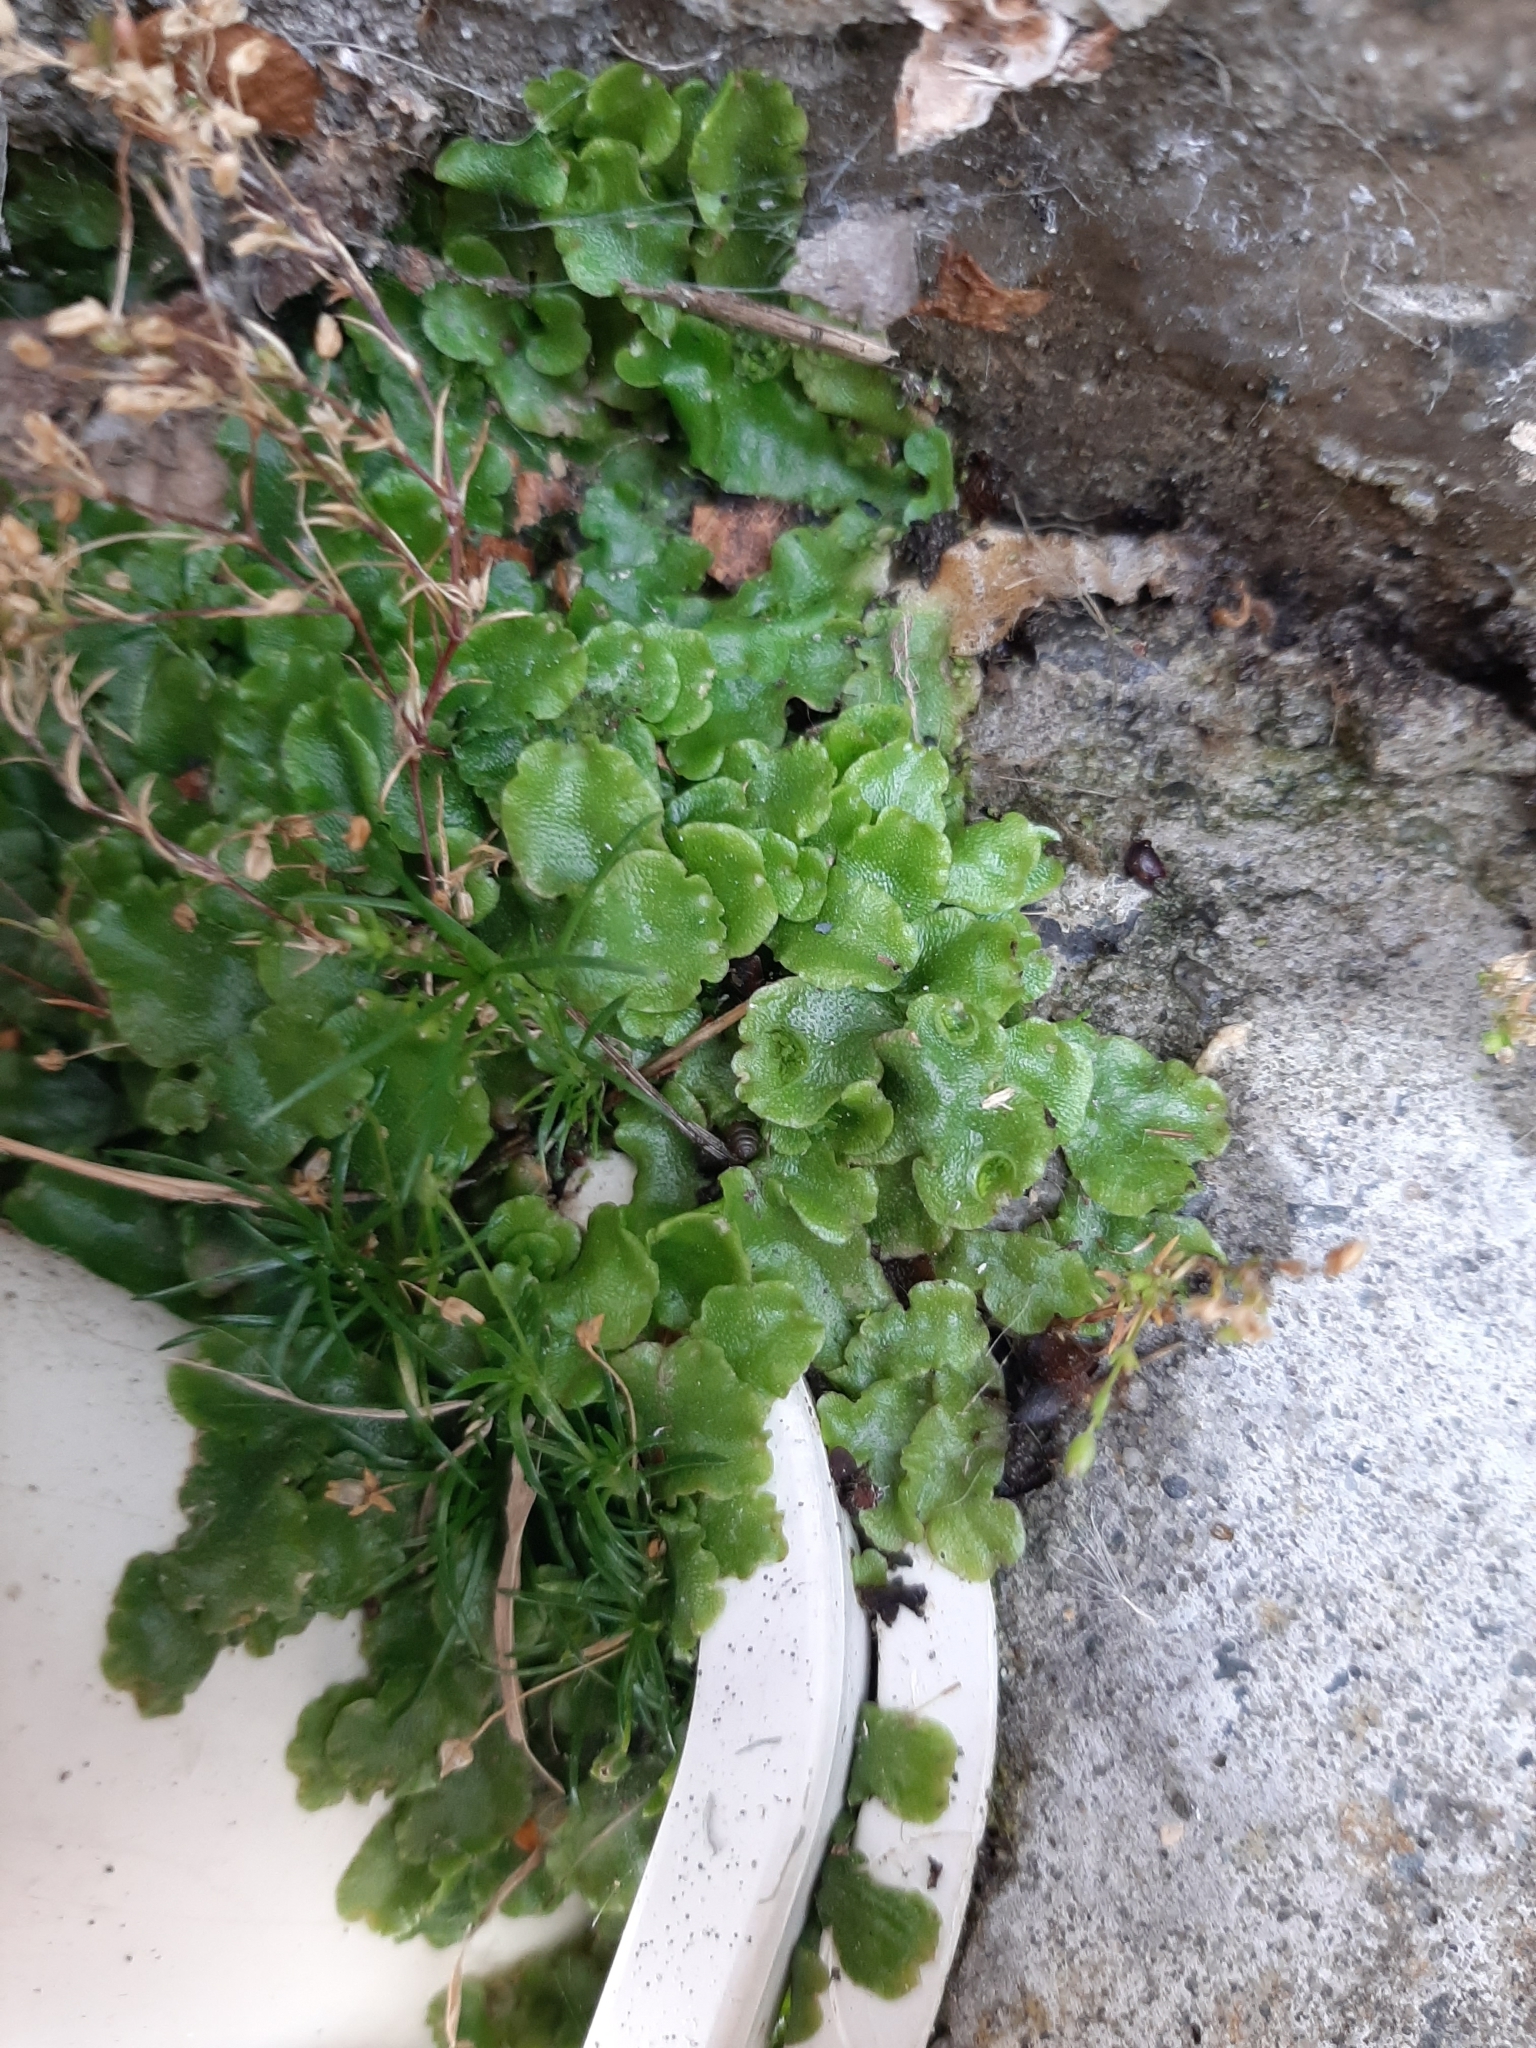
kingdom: Plantae
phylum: Marchantiophyta
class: Marchantiopsida
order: Lunulariales
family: Lunulariaceae
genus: Lunularia
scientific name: Lunularia cruciata
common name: Crescent-cup liverwort
